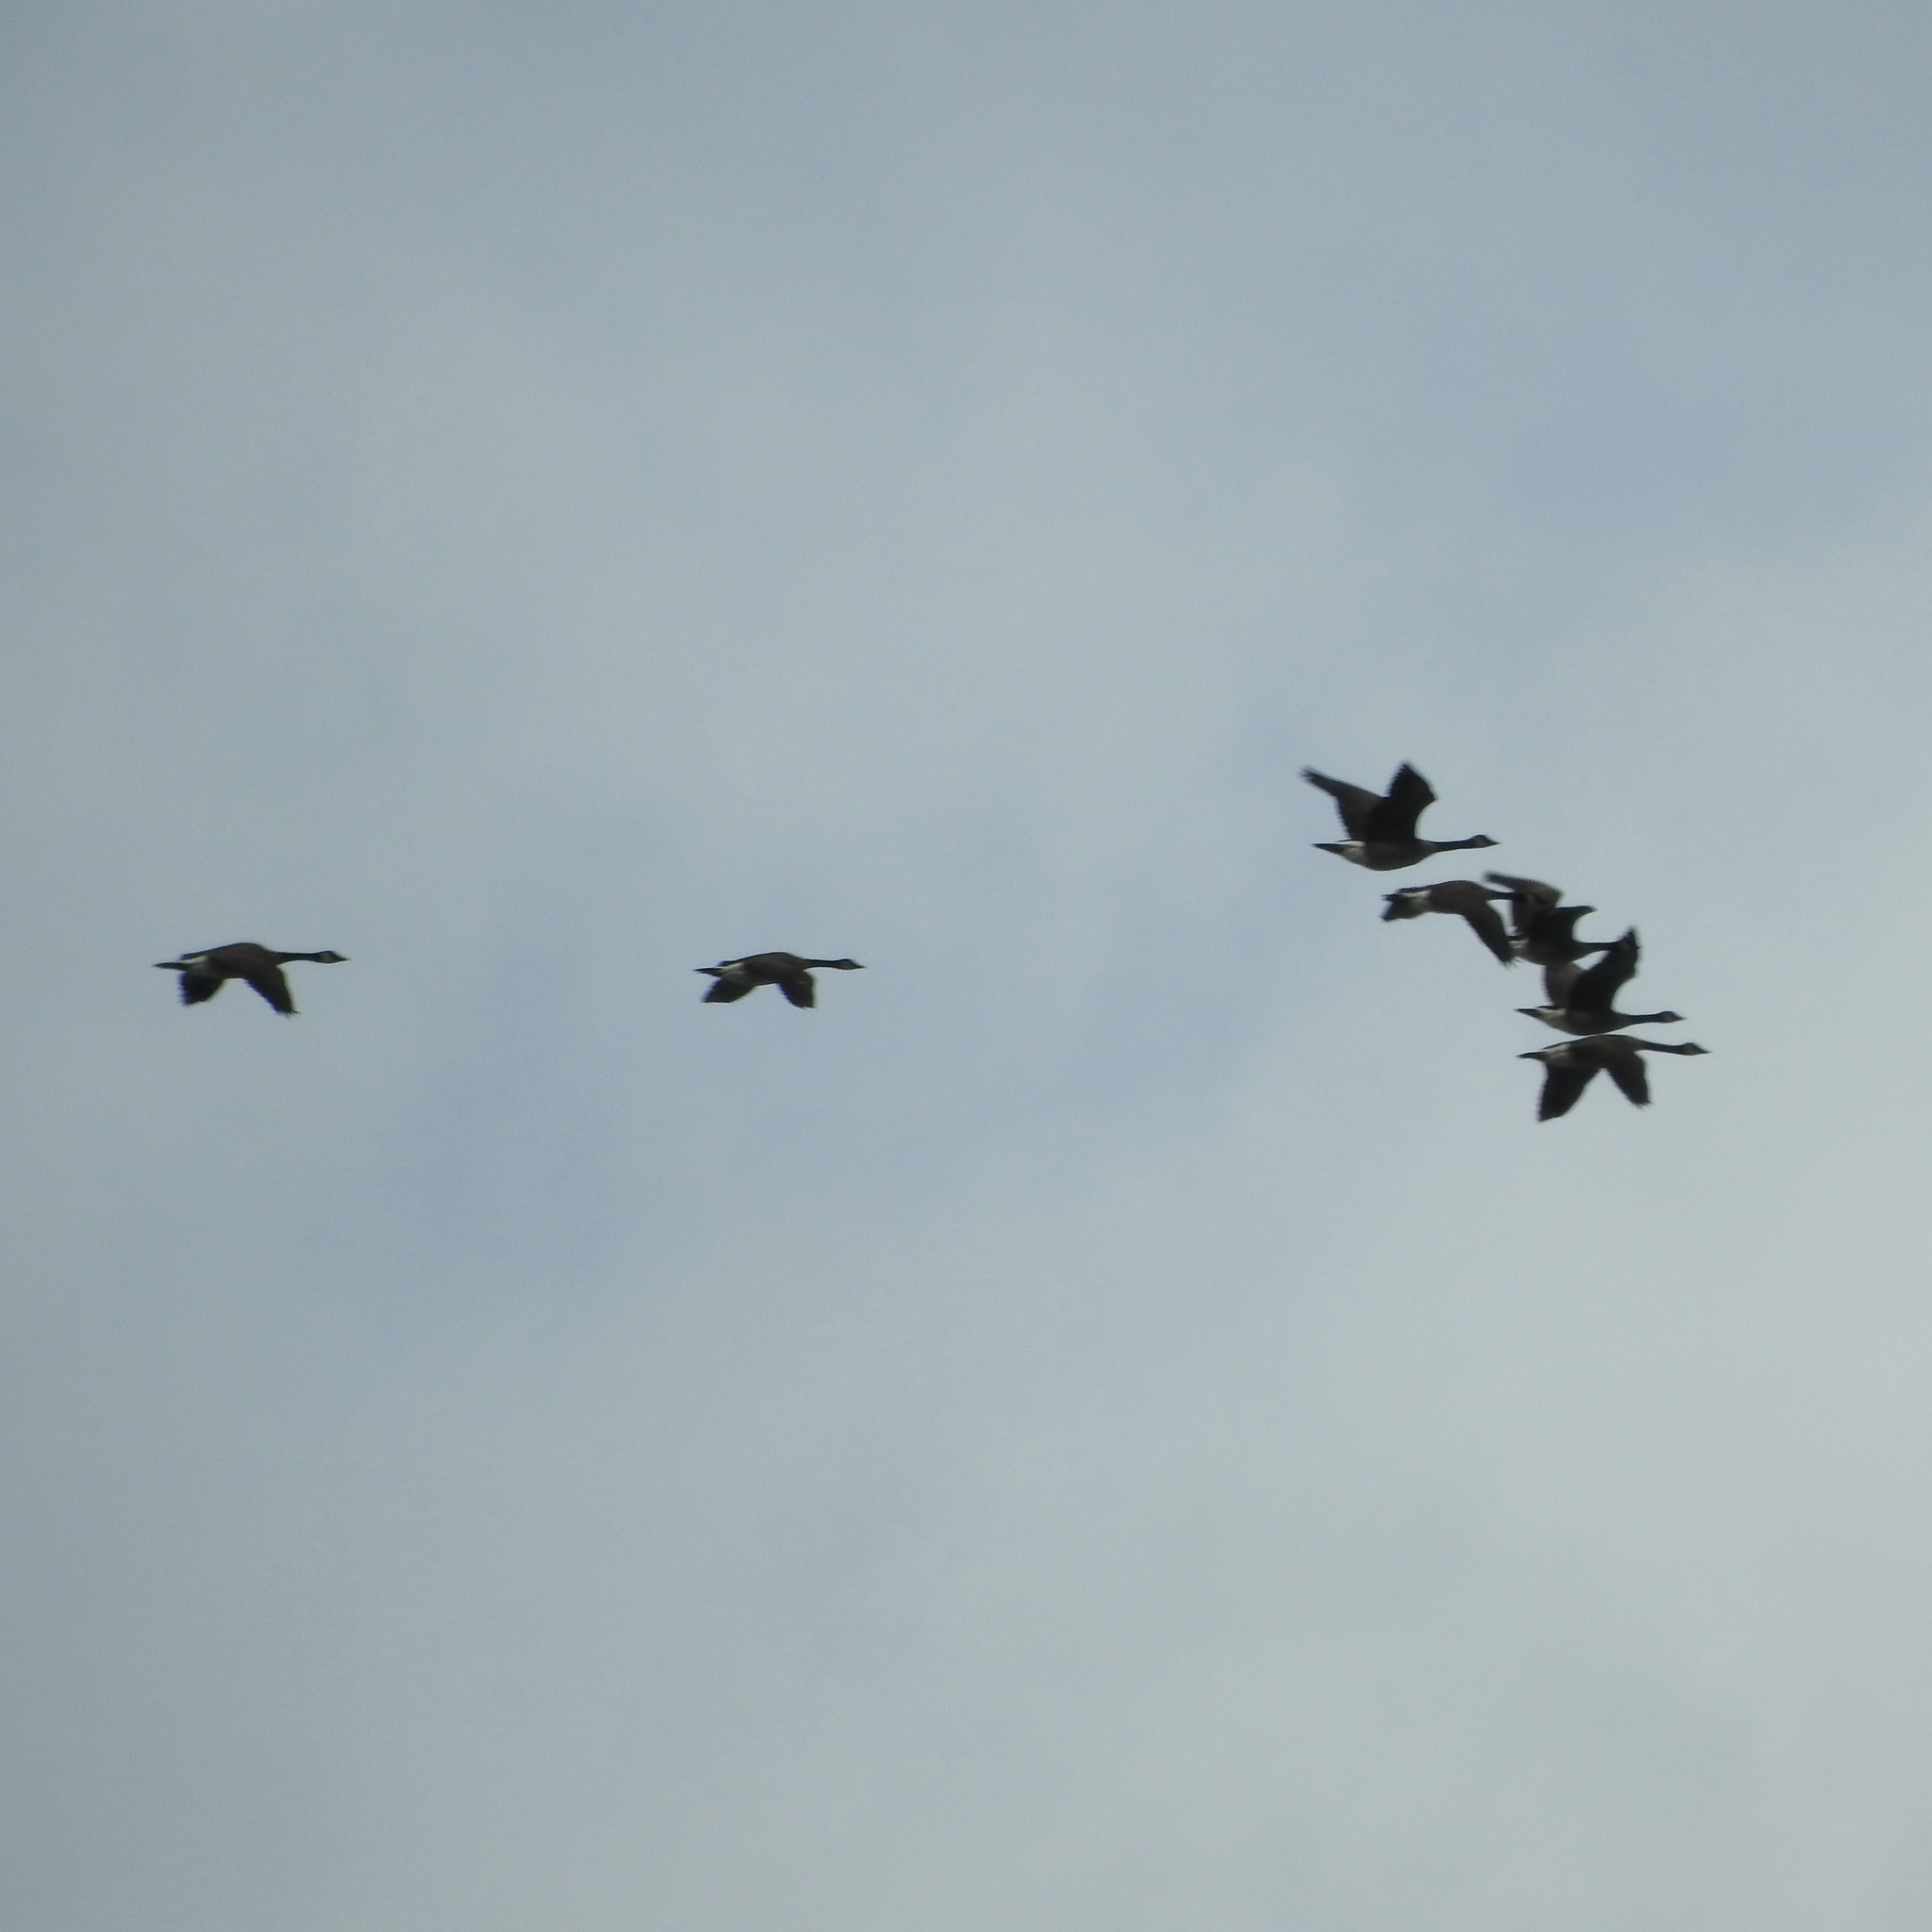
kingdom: Animalia
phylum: Chordata
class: Aves
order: Anseriformes
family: Anatidae
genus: Branta
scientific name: Branta canadensis
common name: Canada goose
